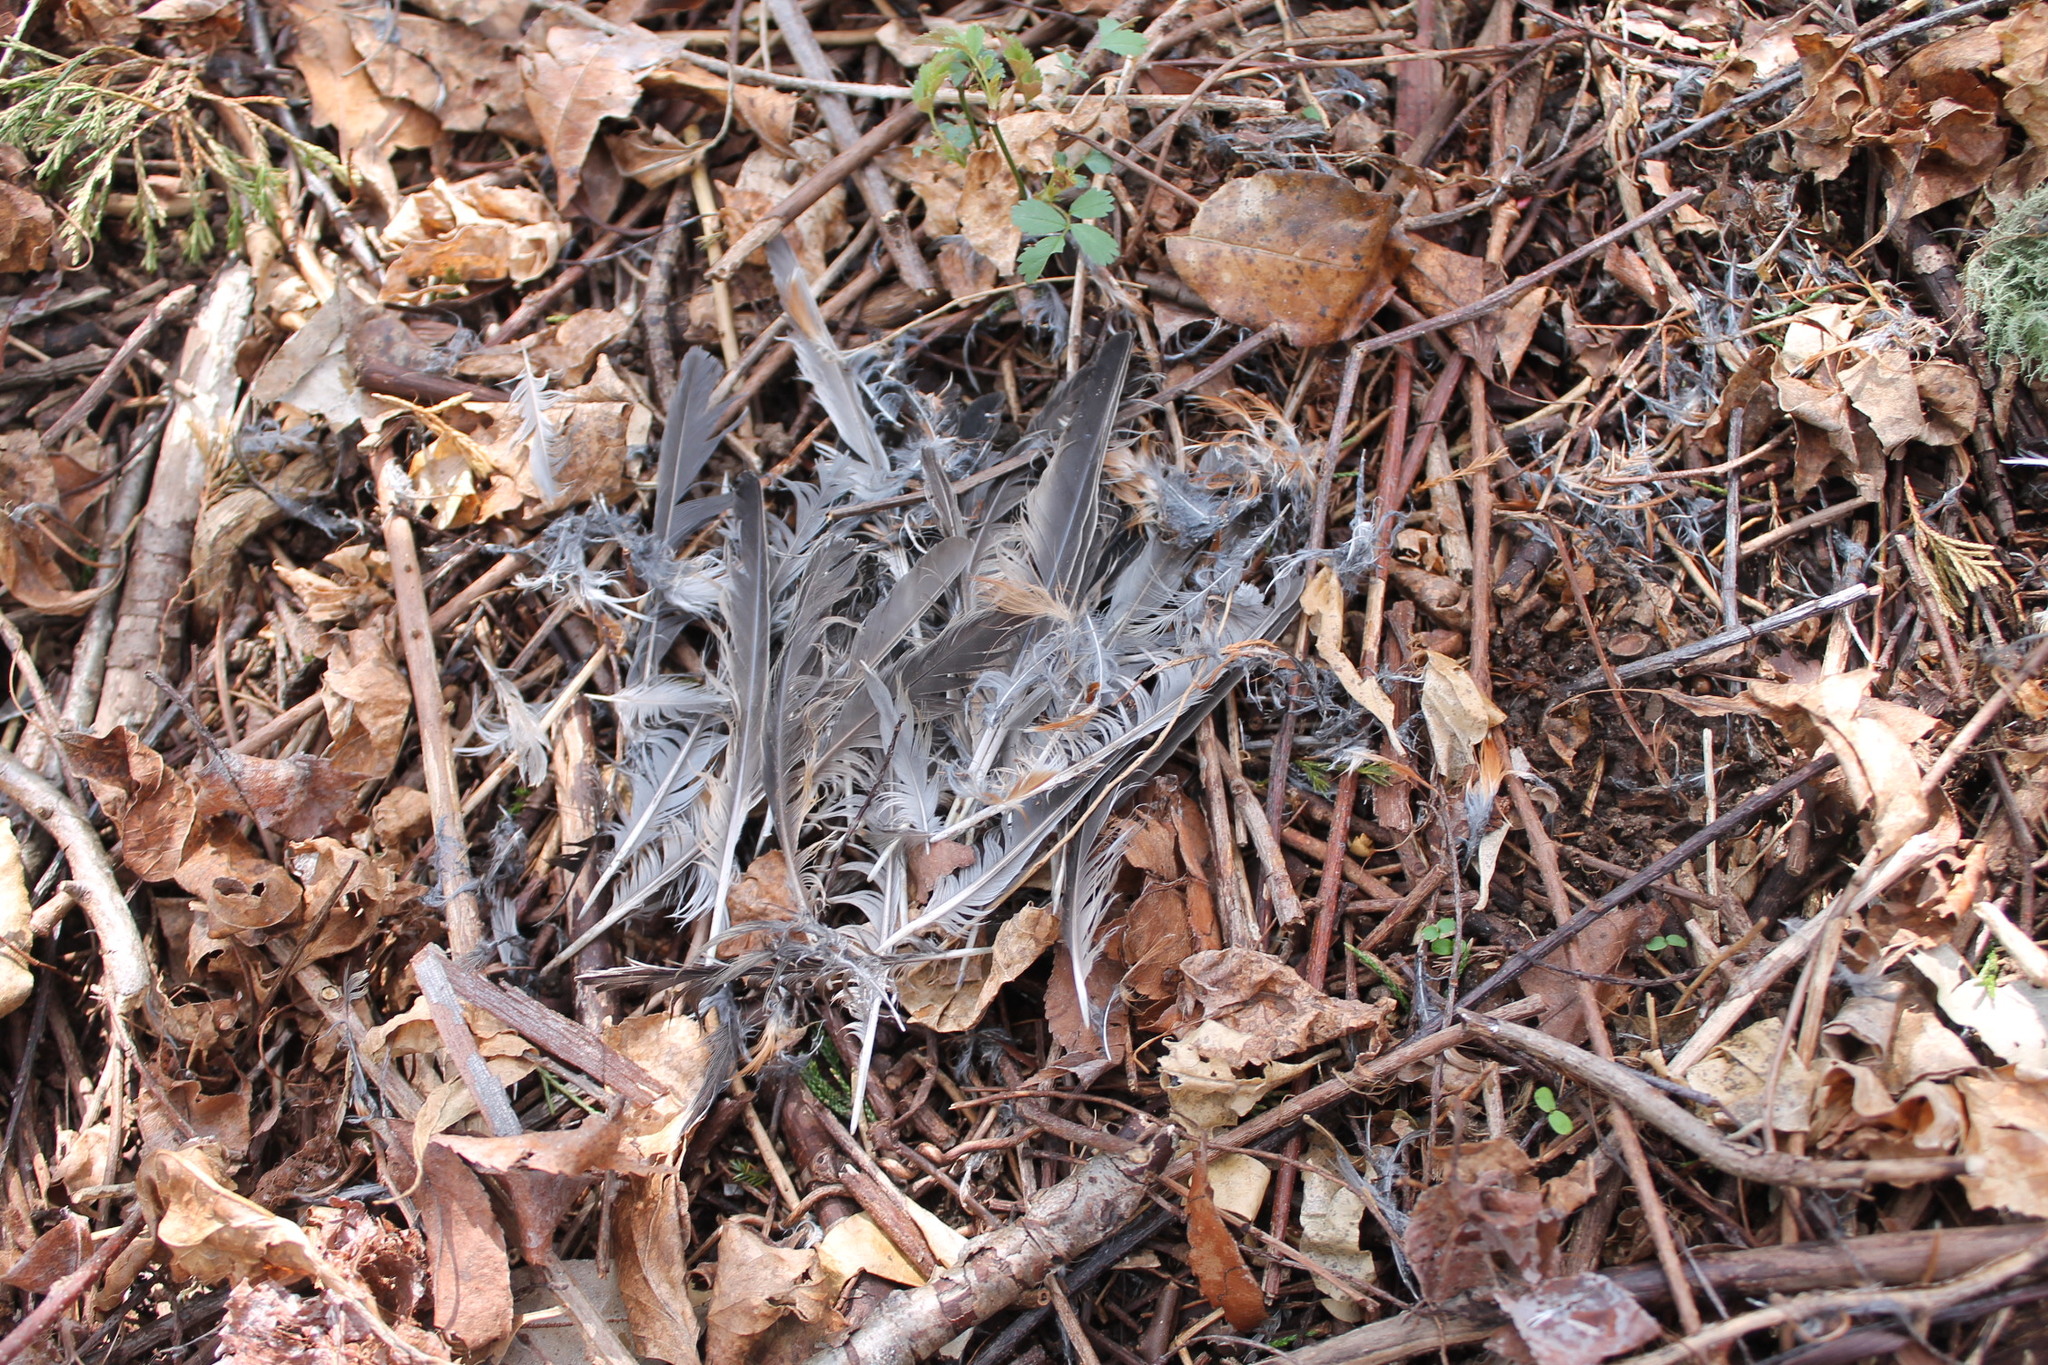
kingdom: Animalia
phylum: Chordata
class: Aves
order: Passeriformes
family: Turdidae
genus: Turdus
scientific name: Turdus migratorius
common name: American robin
